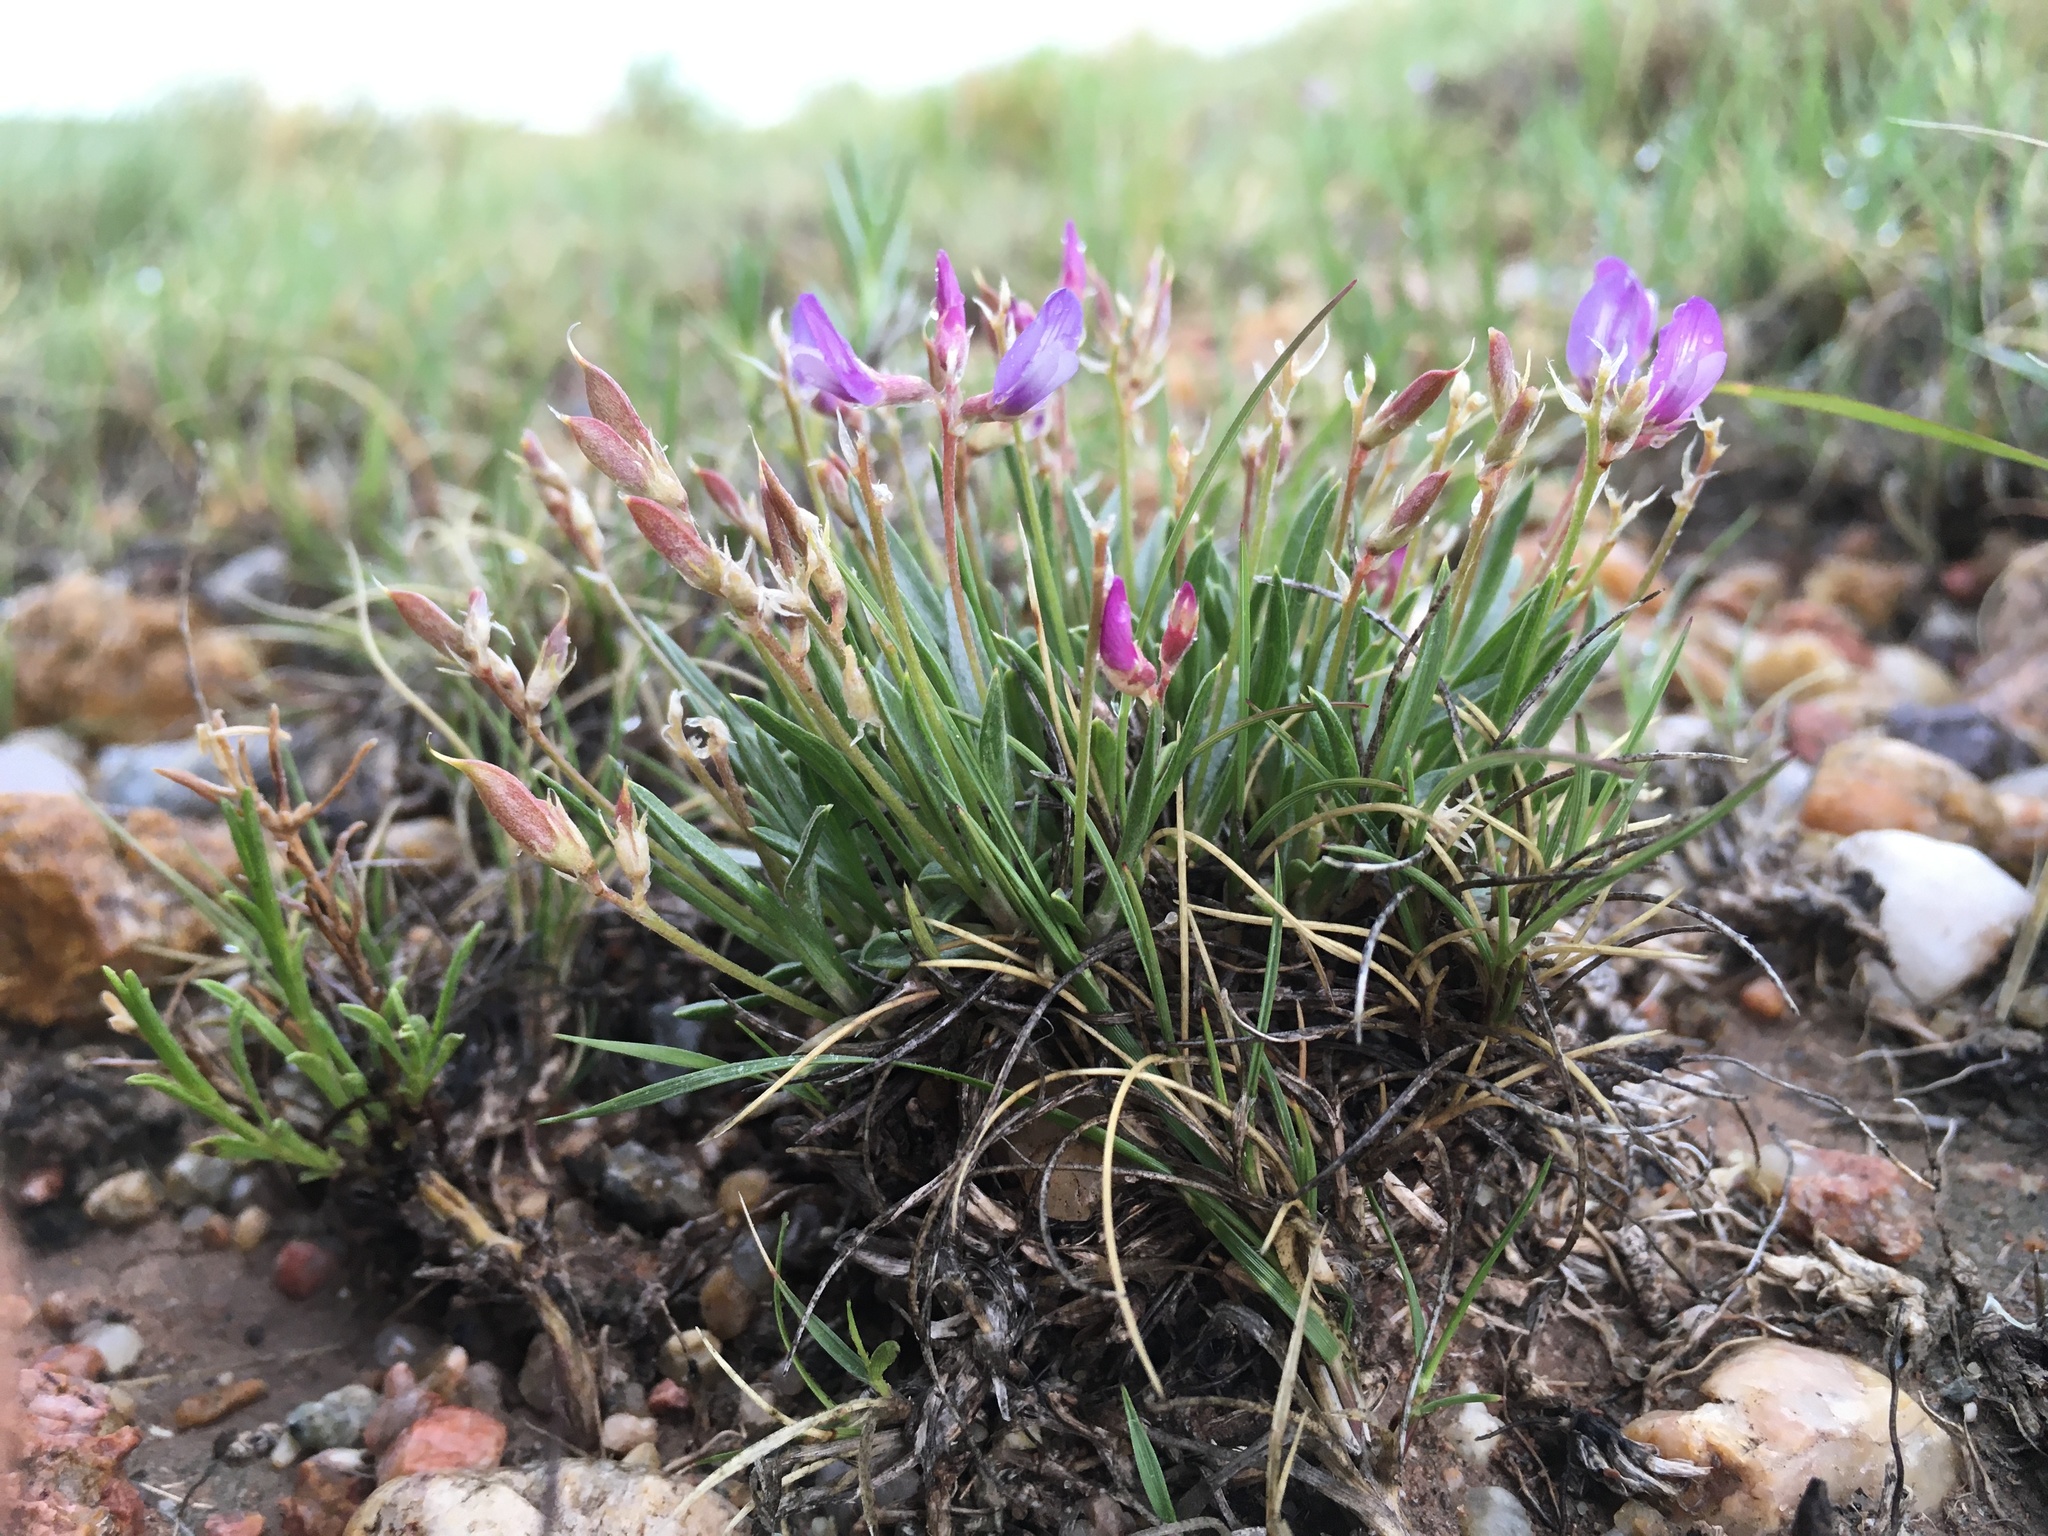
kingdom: Plantae
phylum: Tracheophyta
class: Magnoliopsida
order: Fabales
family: Fabaceae
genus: Astragalus
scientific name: Astragalus spatulatus
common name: Draba milk-vetch
